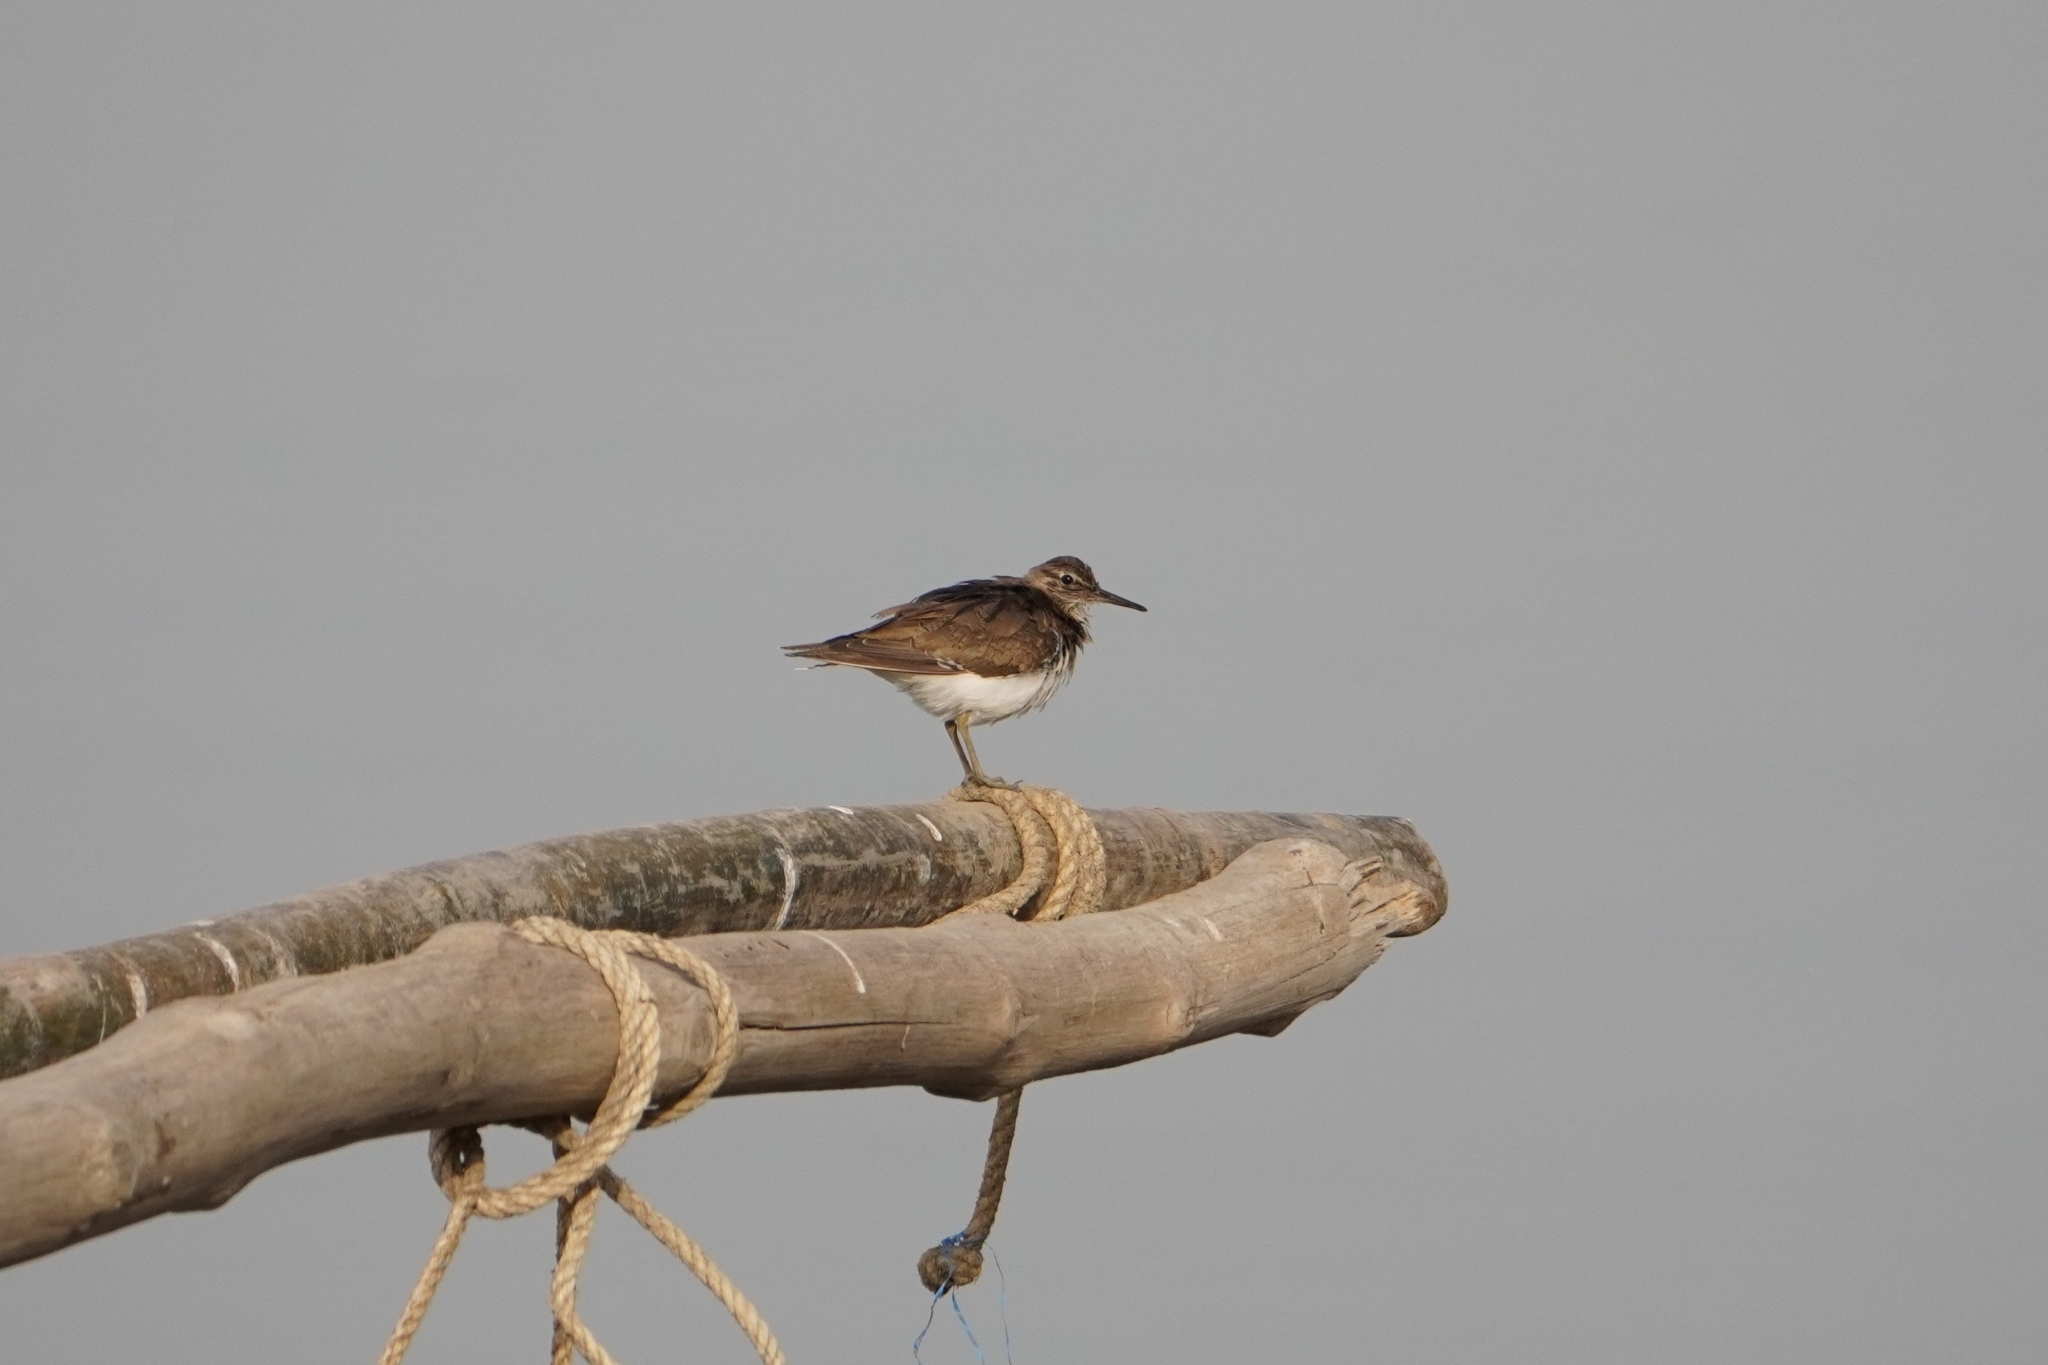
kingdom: Animalia
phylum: Chordata
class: Aves
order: Charadriiformes
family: Scolopacidae
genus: Actitis
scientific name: Actitis hypoleucos
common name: Common sandpiper
